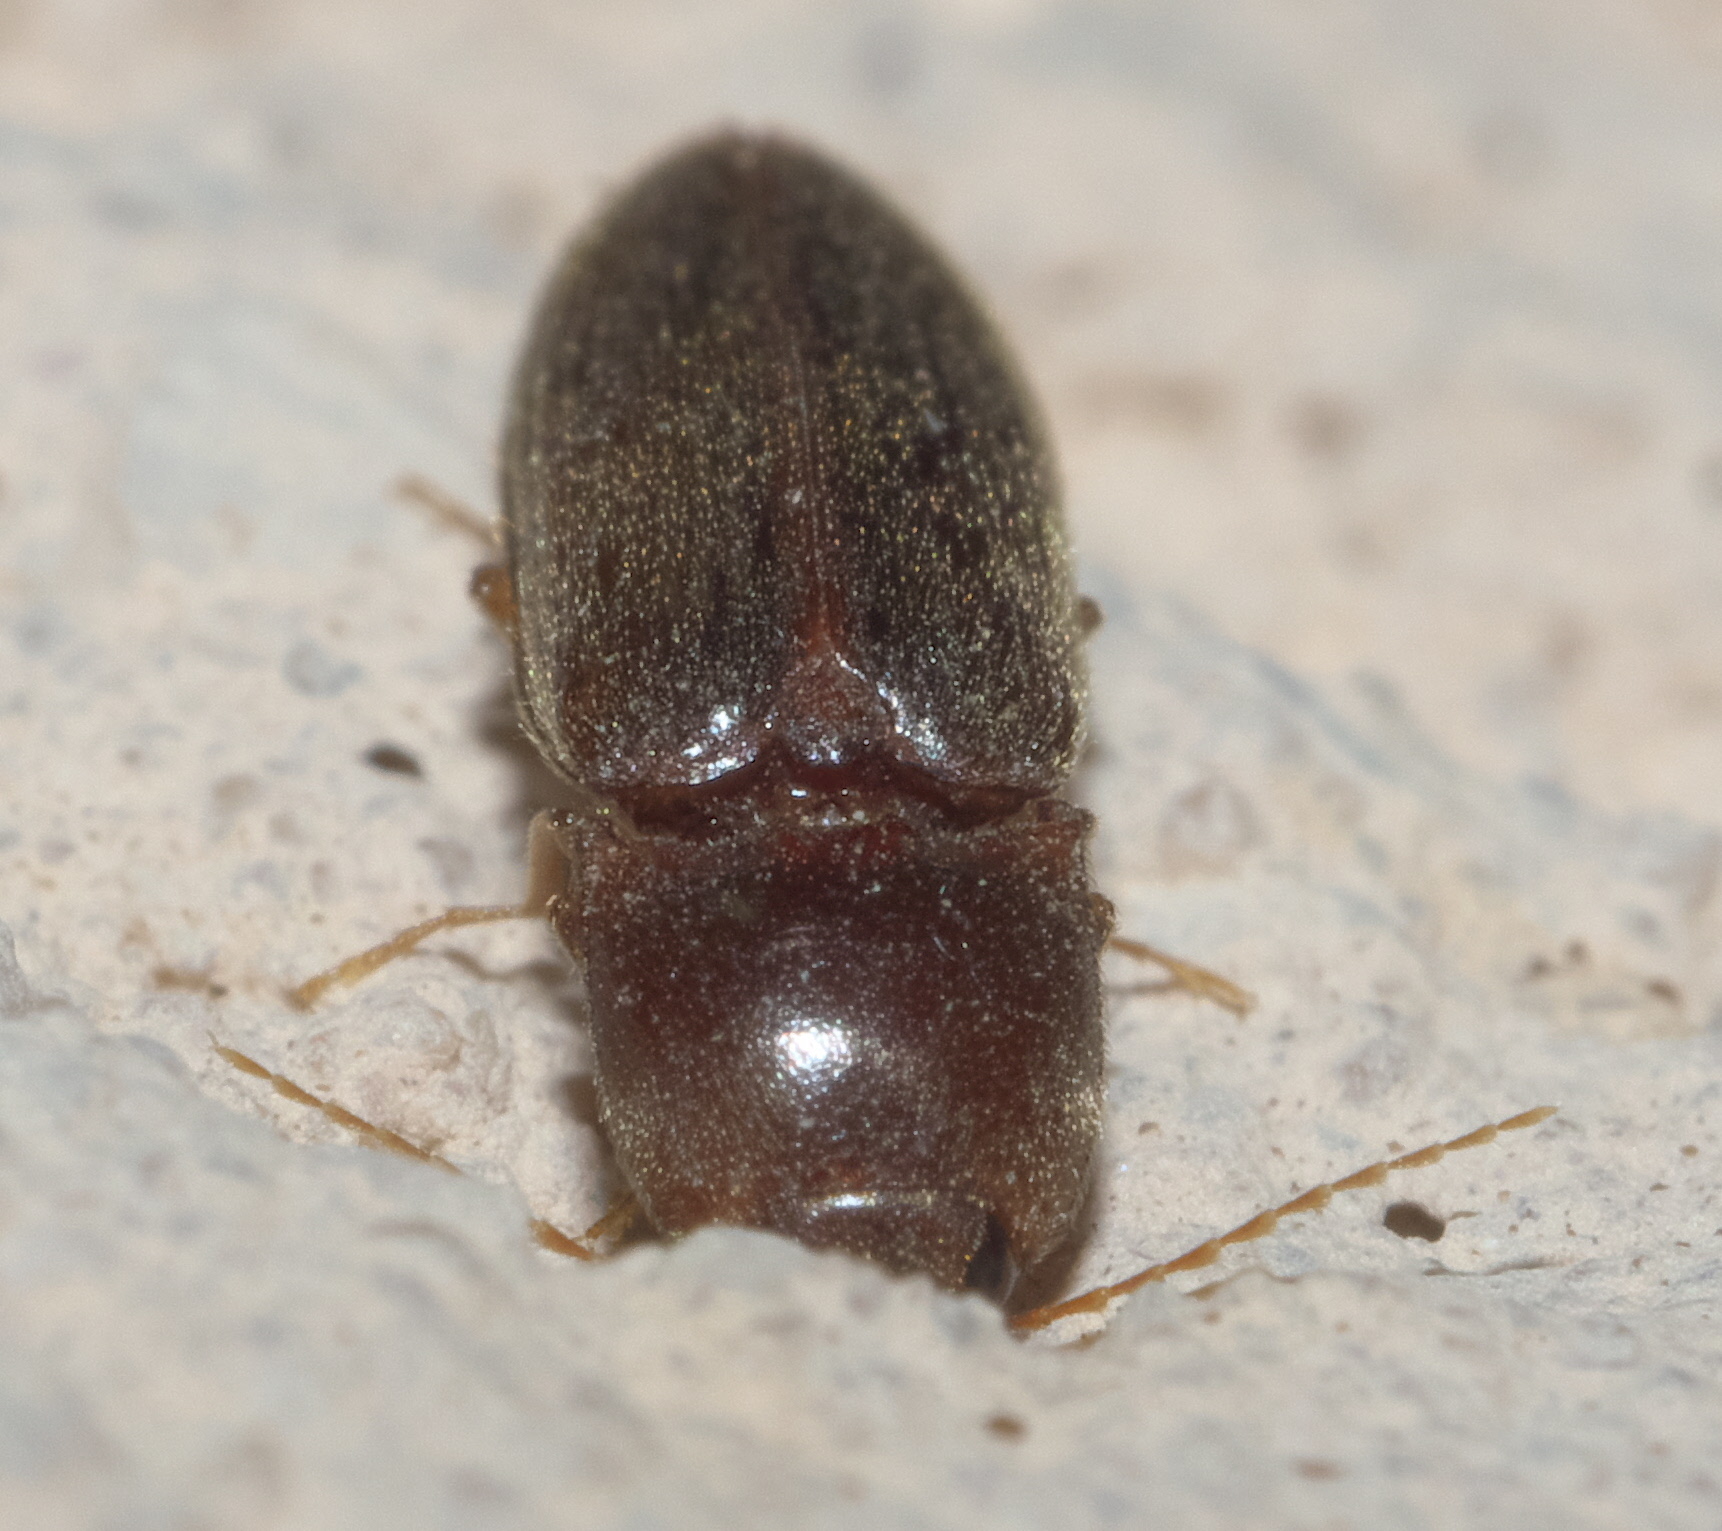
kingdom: Animalia
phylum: Arthropoda
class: Insecta
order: Coleoptera
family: Elateridae
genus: Esthesopus
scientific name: Esthesopus
